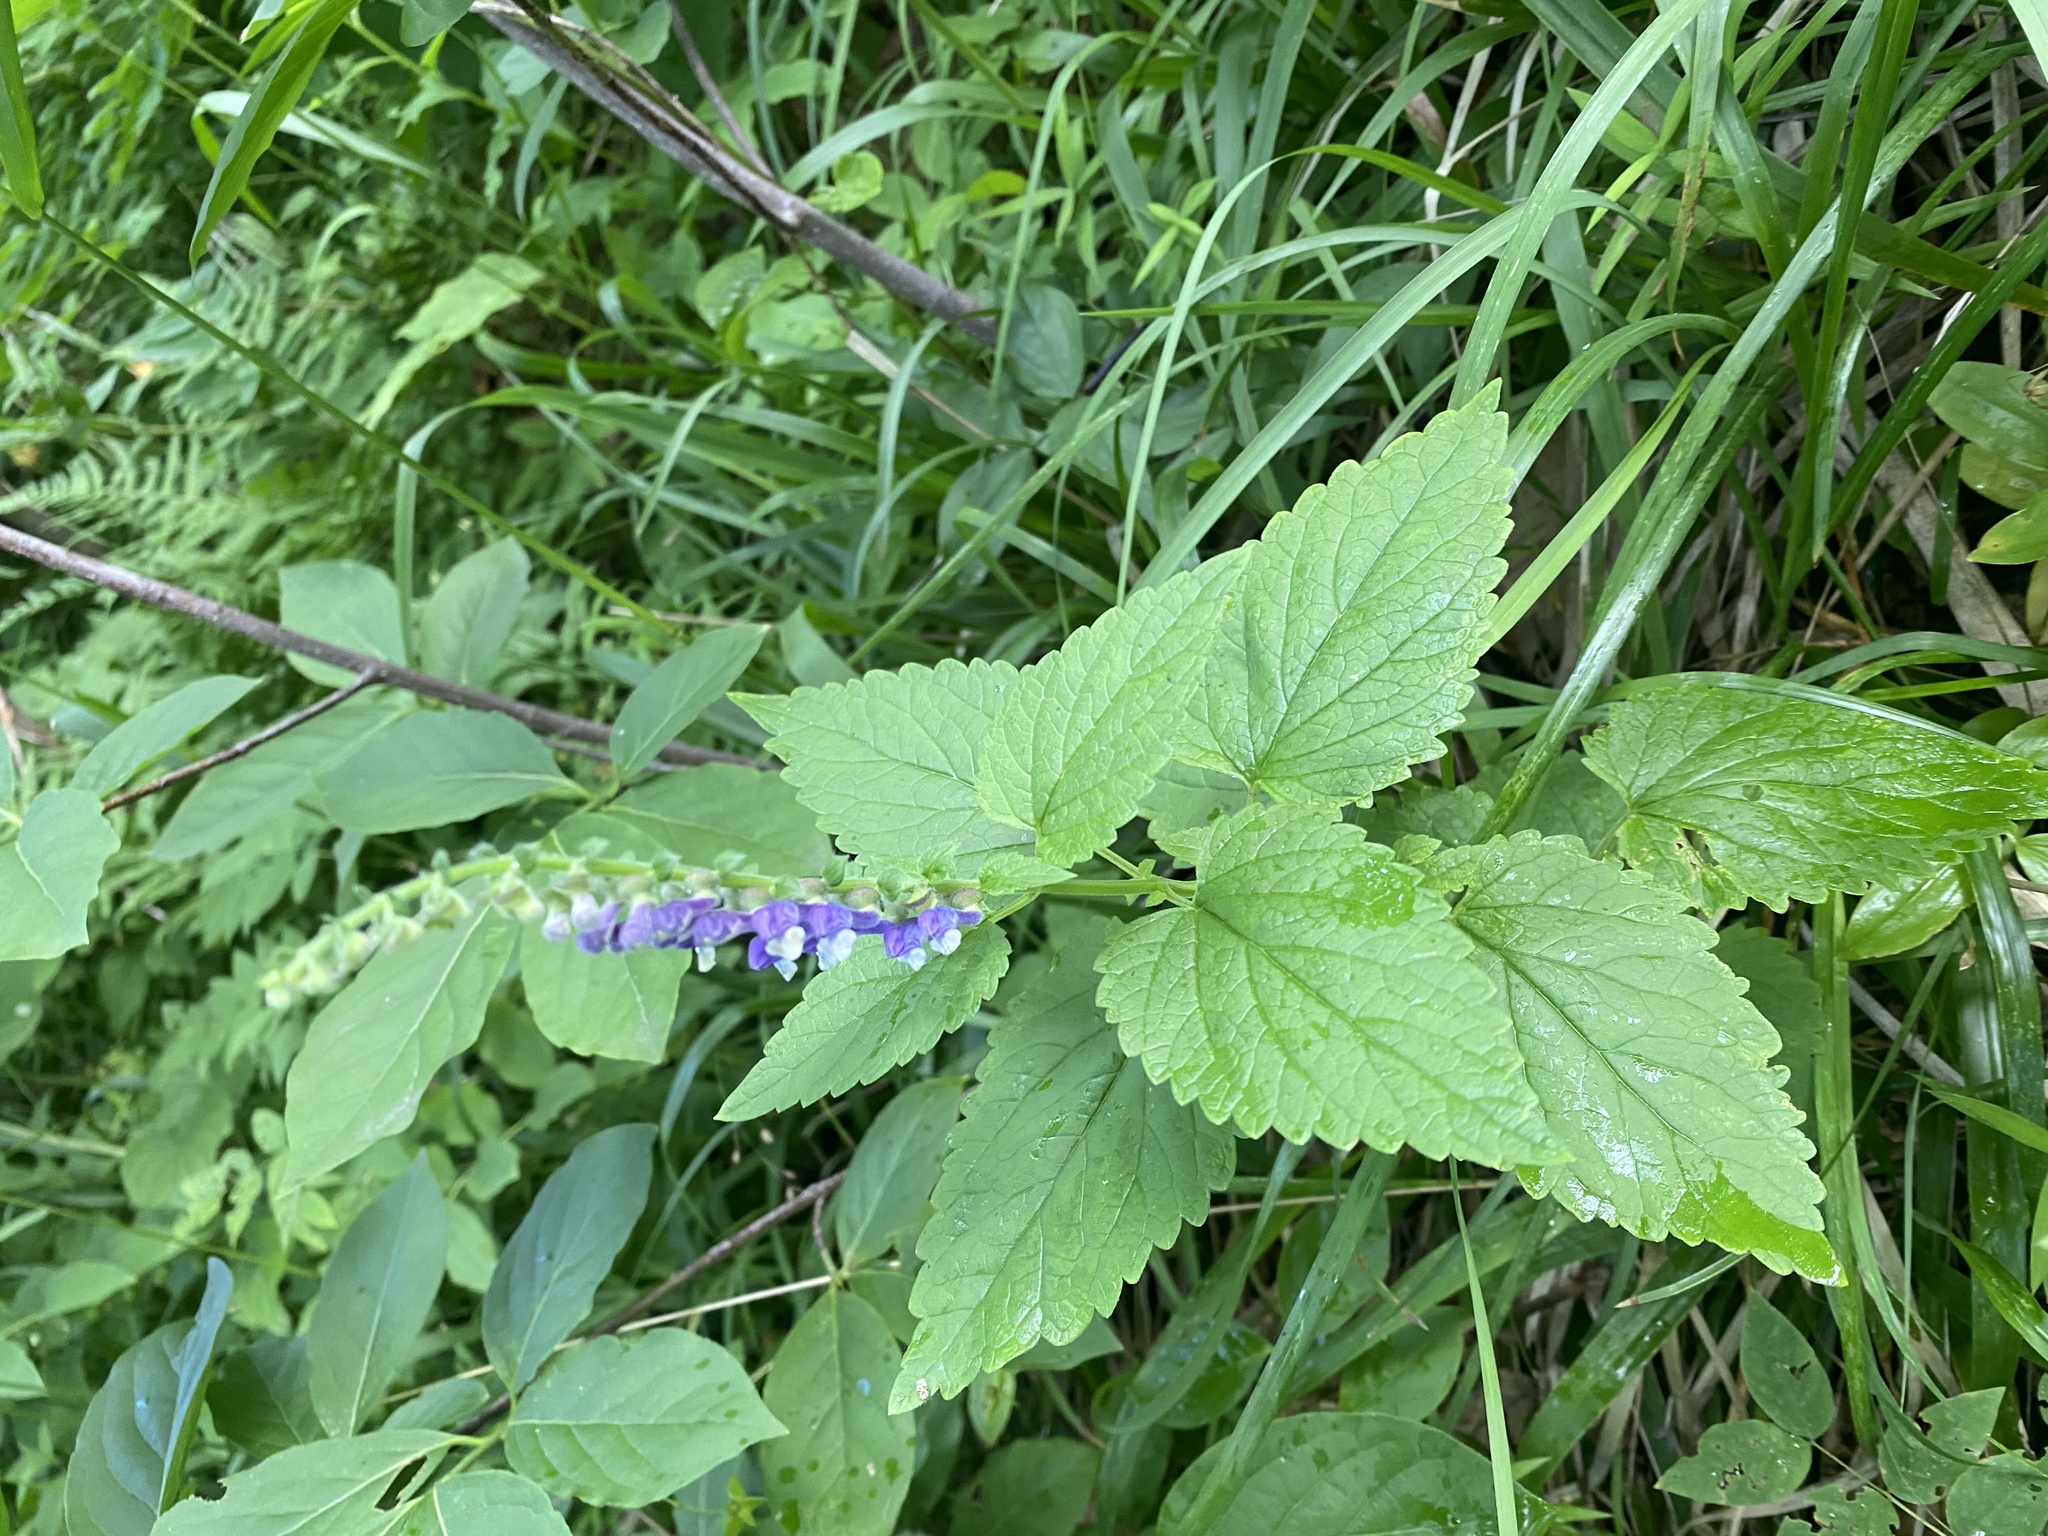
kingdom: Plantae
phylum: Tracheophyta
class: Magnoliopsida
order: Lamiales
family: Lamiaceae
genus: Scutellaria
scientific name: Scutellaria altissima
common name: Somerset skullcap
